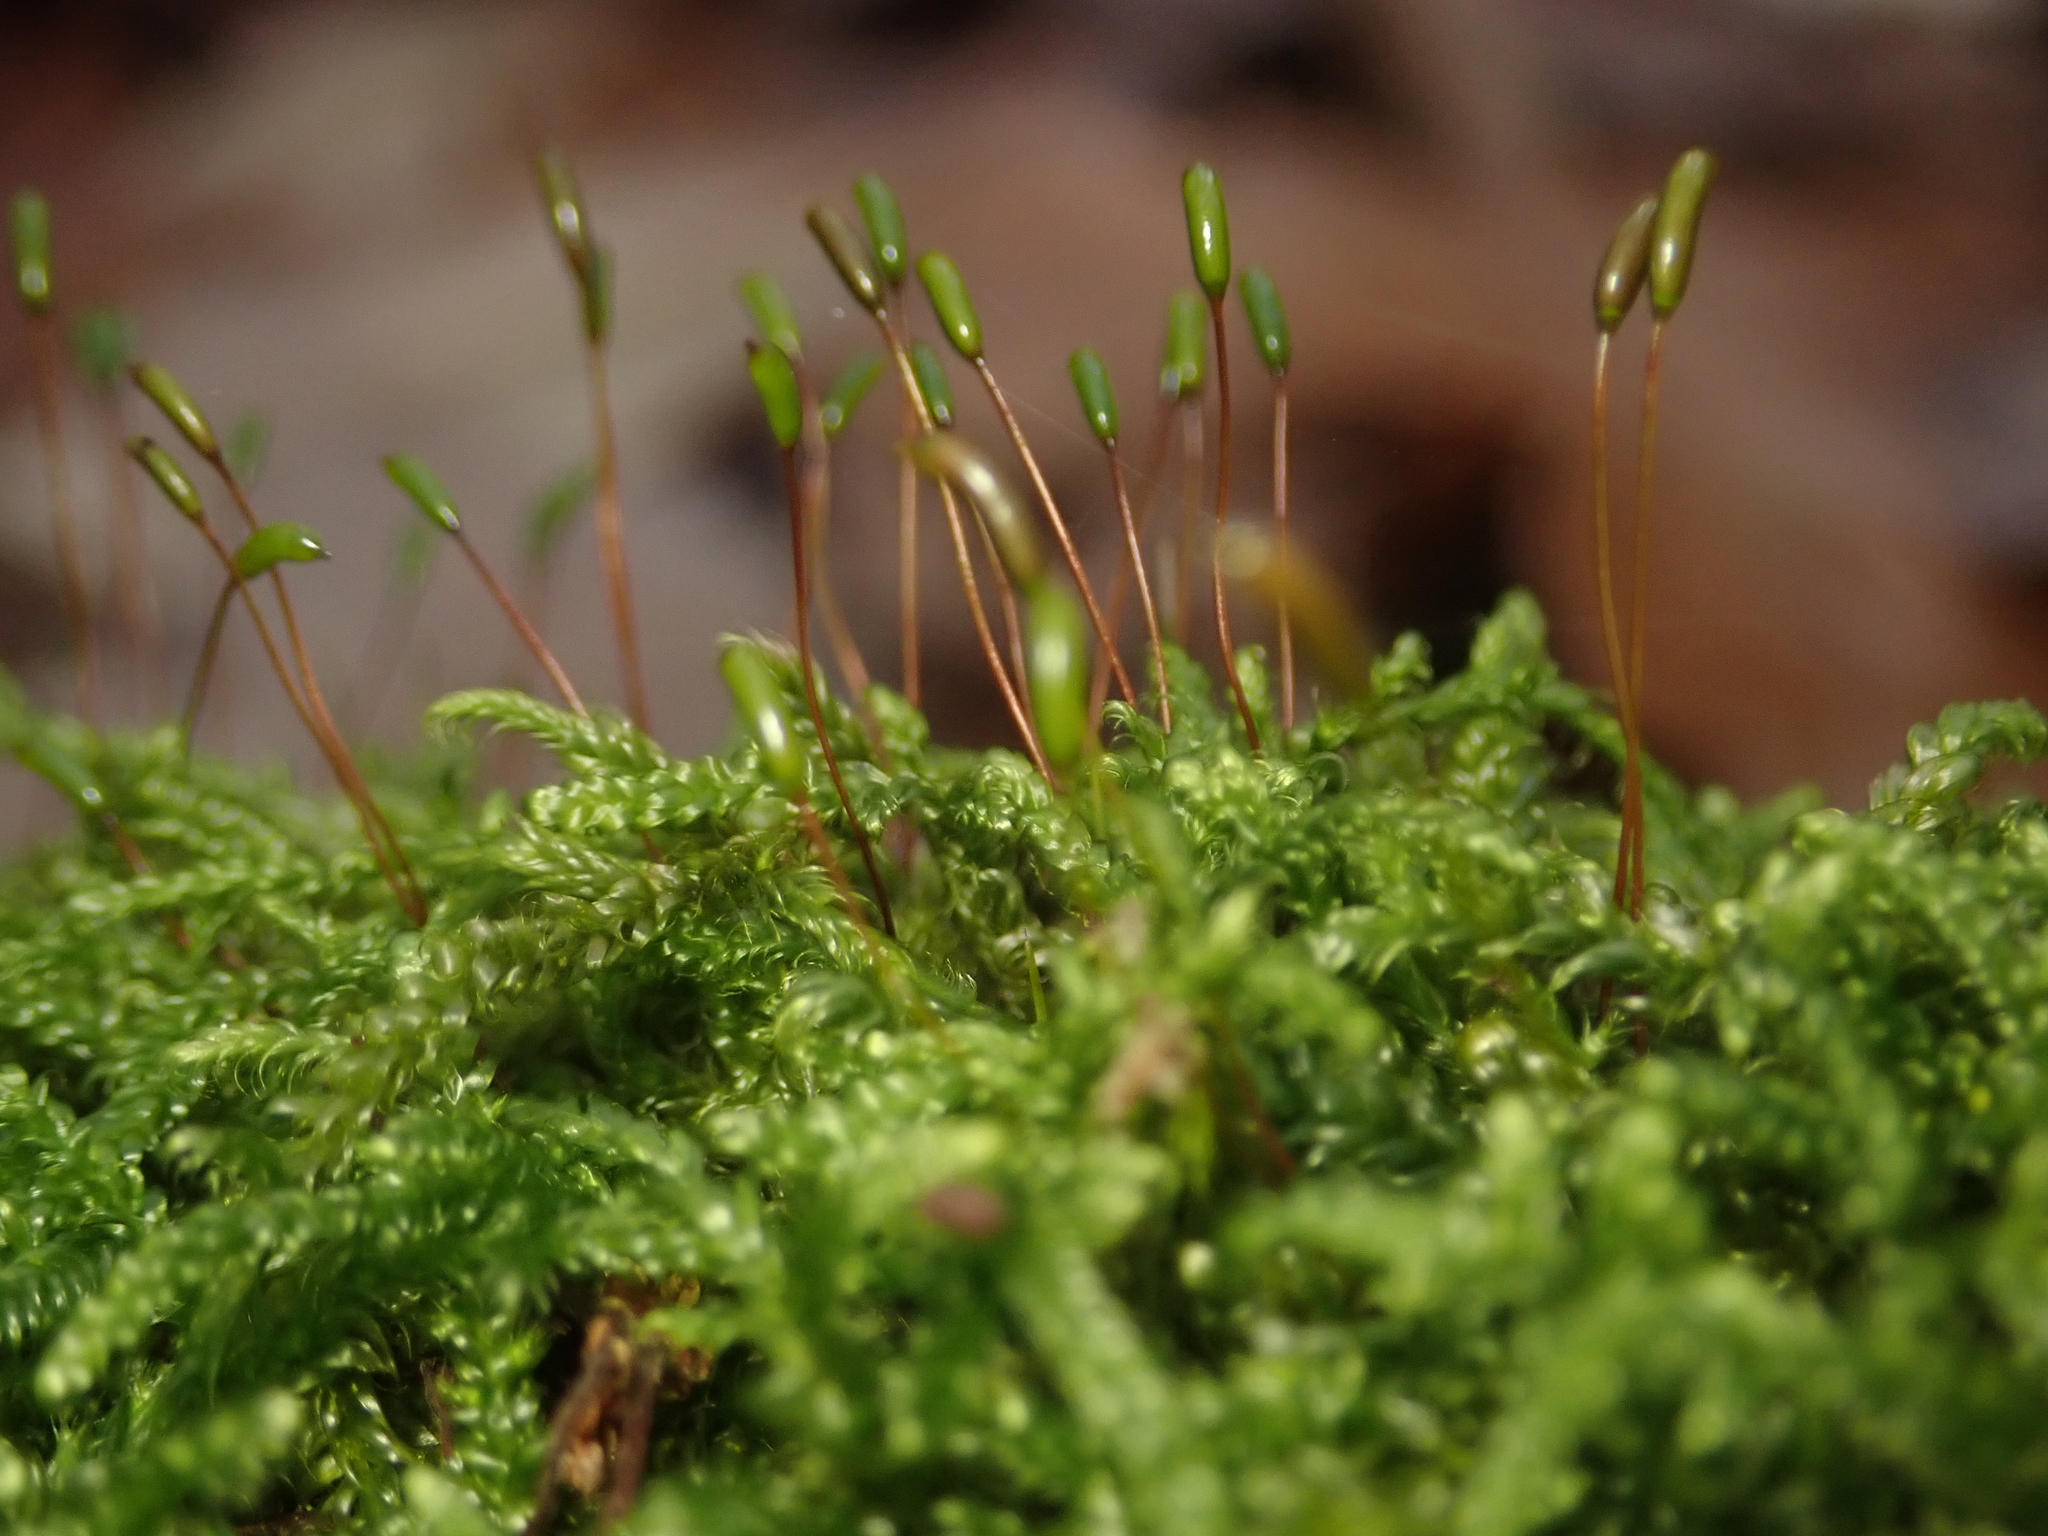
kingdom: Plantae
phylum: Bryophyta
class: Bryopsida
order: Hypnales
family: Hypnaceae
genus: Hypnum
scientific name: Hypnum cupressiforme
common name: Cypress-leaved plait-moss
